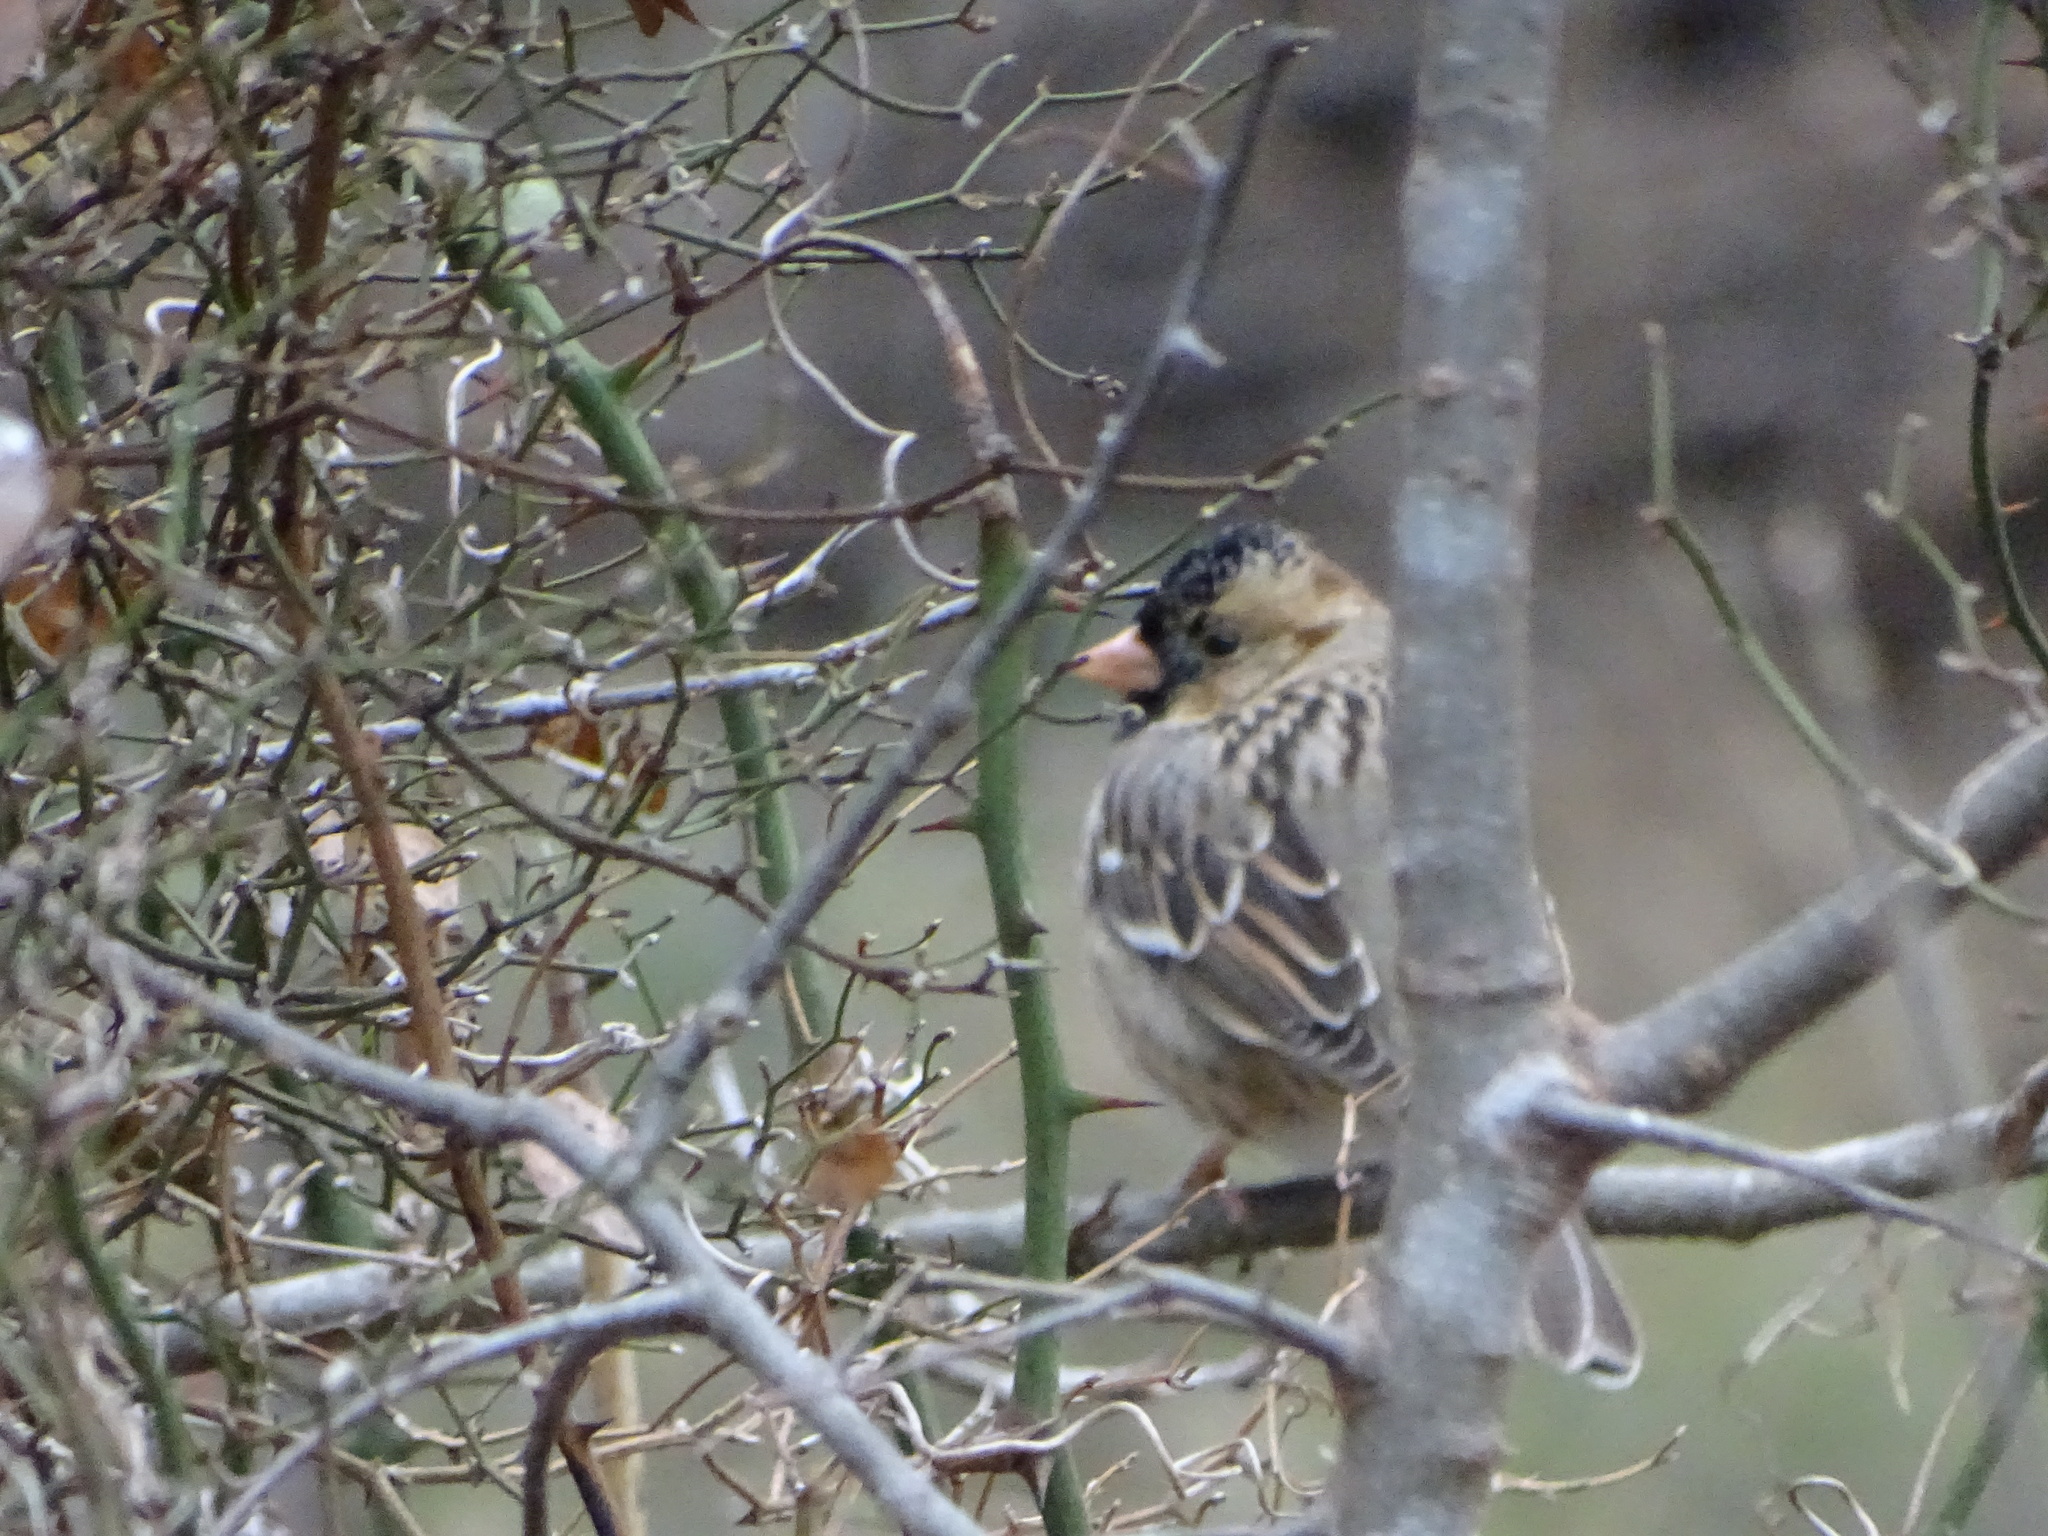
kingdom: Animalia
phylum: Chordata
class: Aves
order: Passeriformes
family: Passerellidae
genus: Zonotrichia
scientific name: Zonotrichia querula
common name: Harris's sparrow
